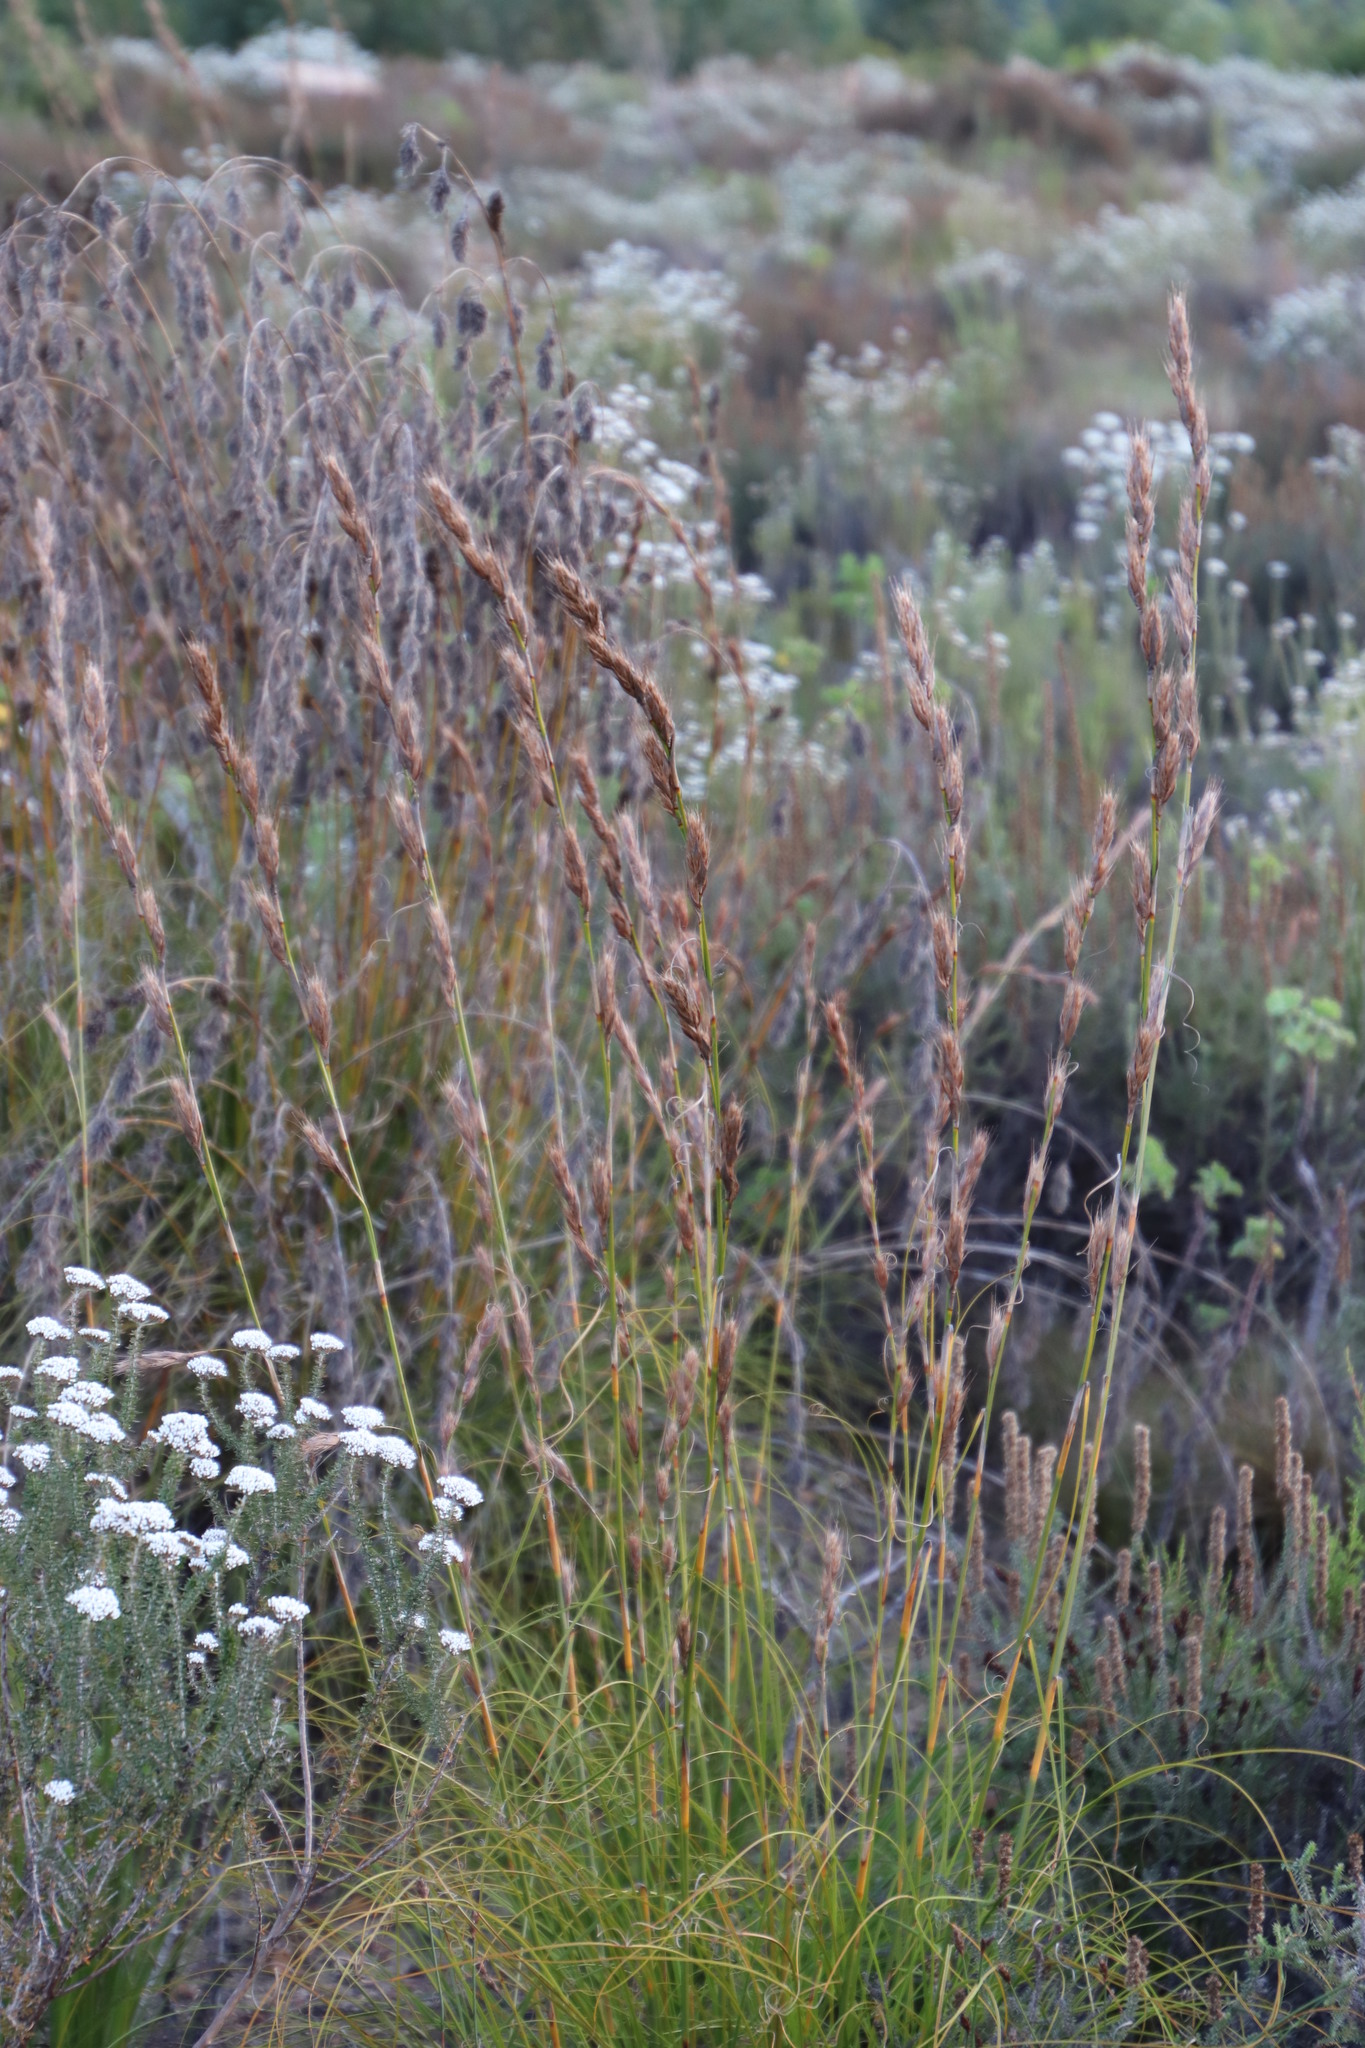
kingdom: Plantae
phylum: Tracheophyta
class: Liliopsida
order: Poales
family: Cyperaceae
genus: Tetraria
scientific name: Tetraria bromoides
